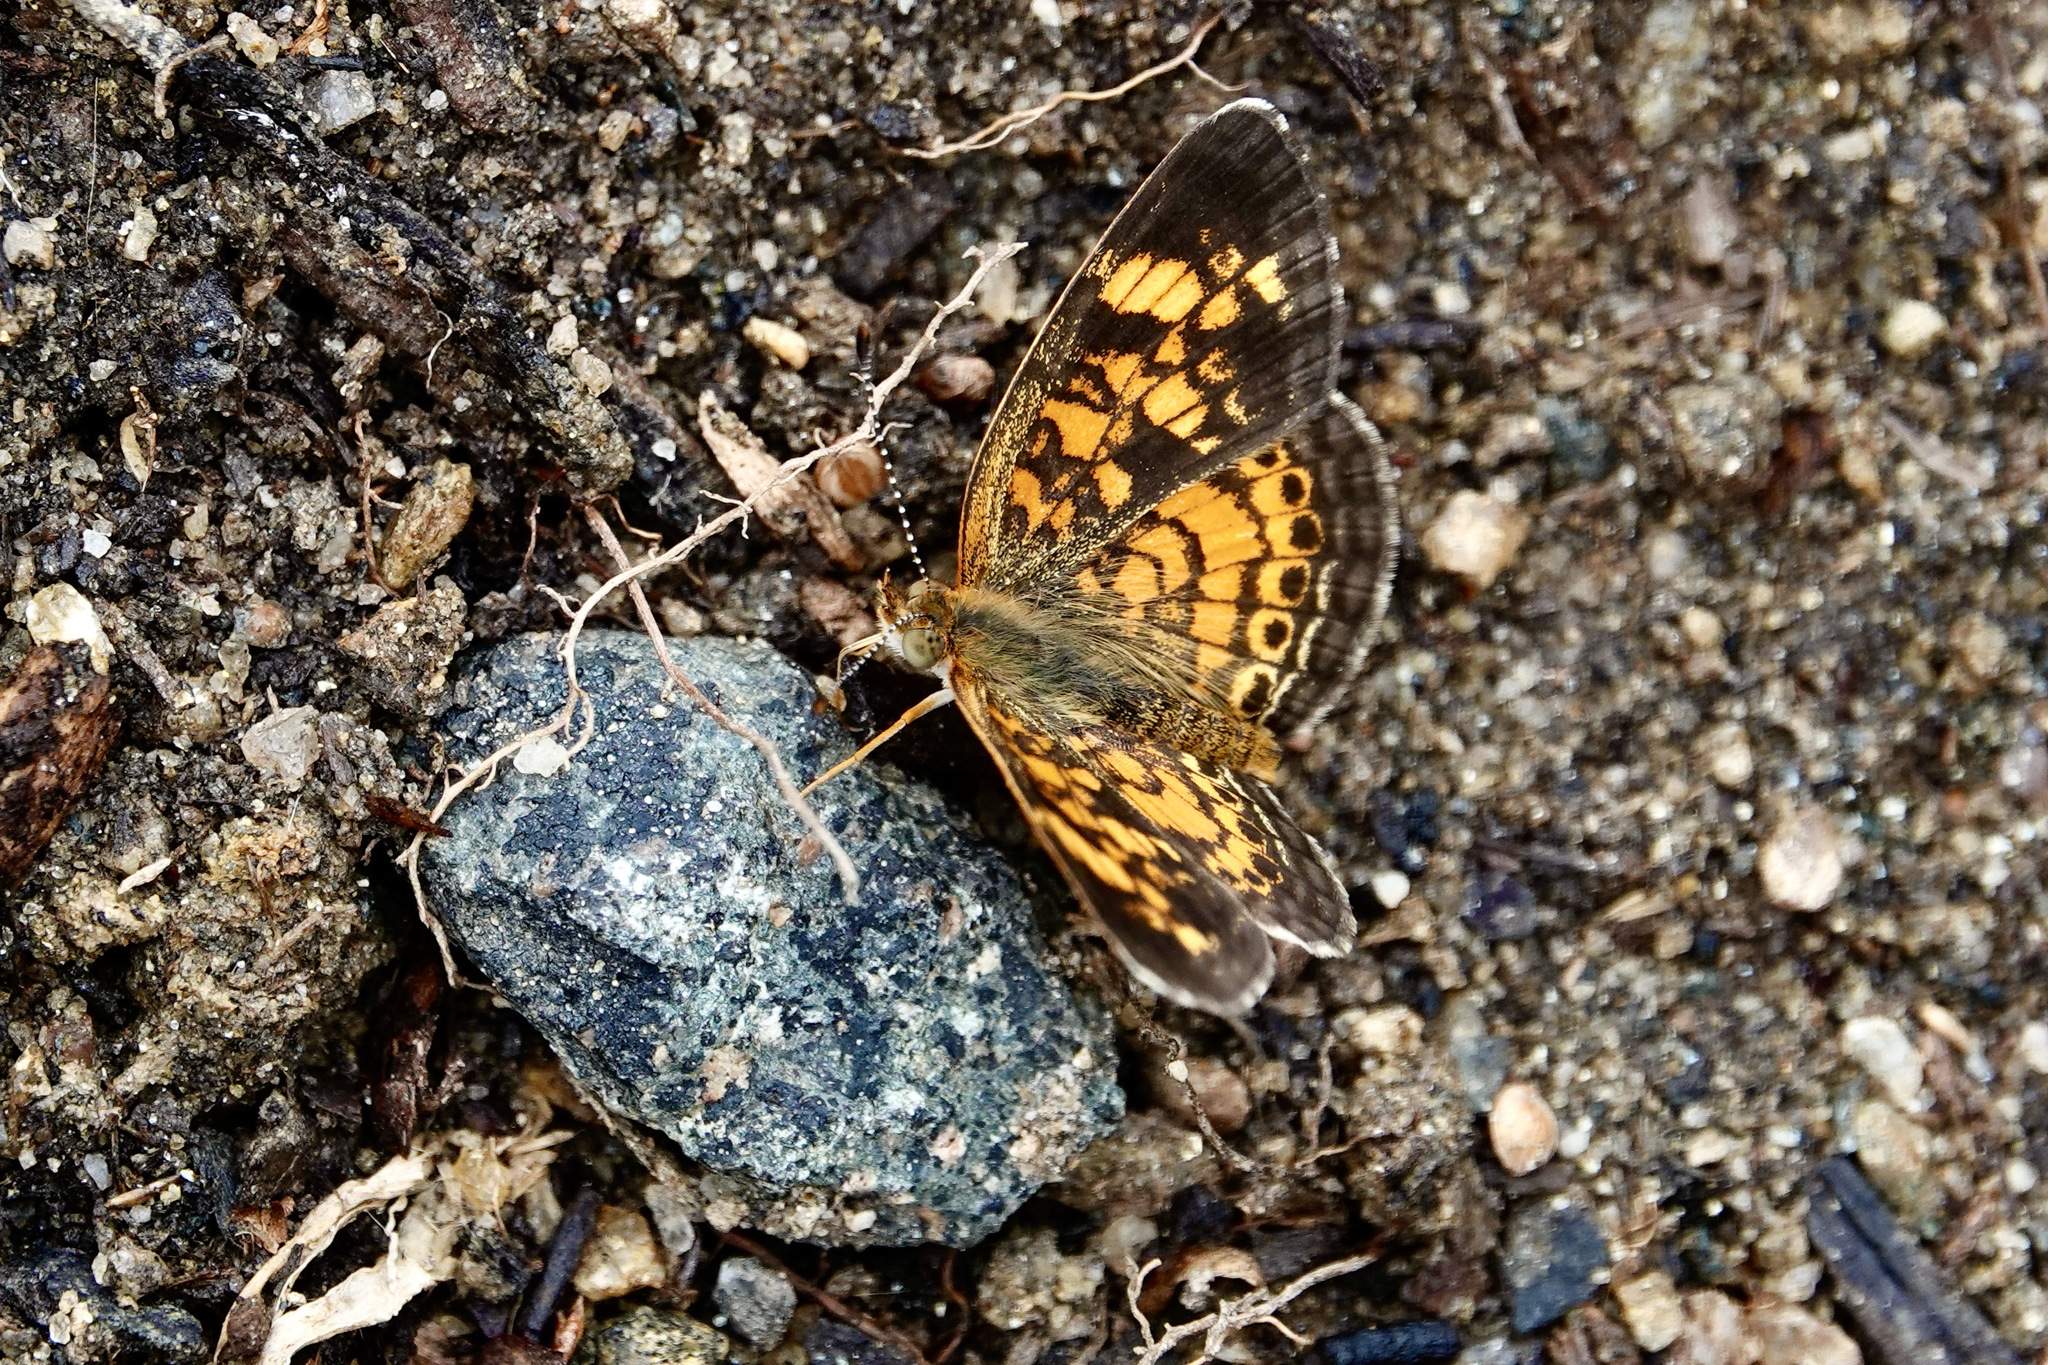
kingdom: Animalia
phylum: Arthropoda
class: Insecta
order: Lepidoptera
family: Nymphalidae
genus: Phyciodes
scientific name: Phyciodes tharos
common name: Pearl crescent
